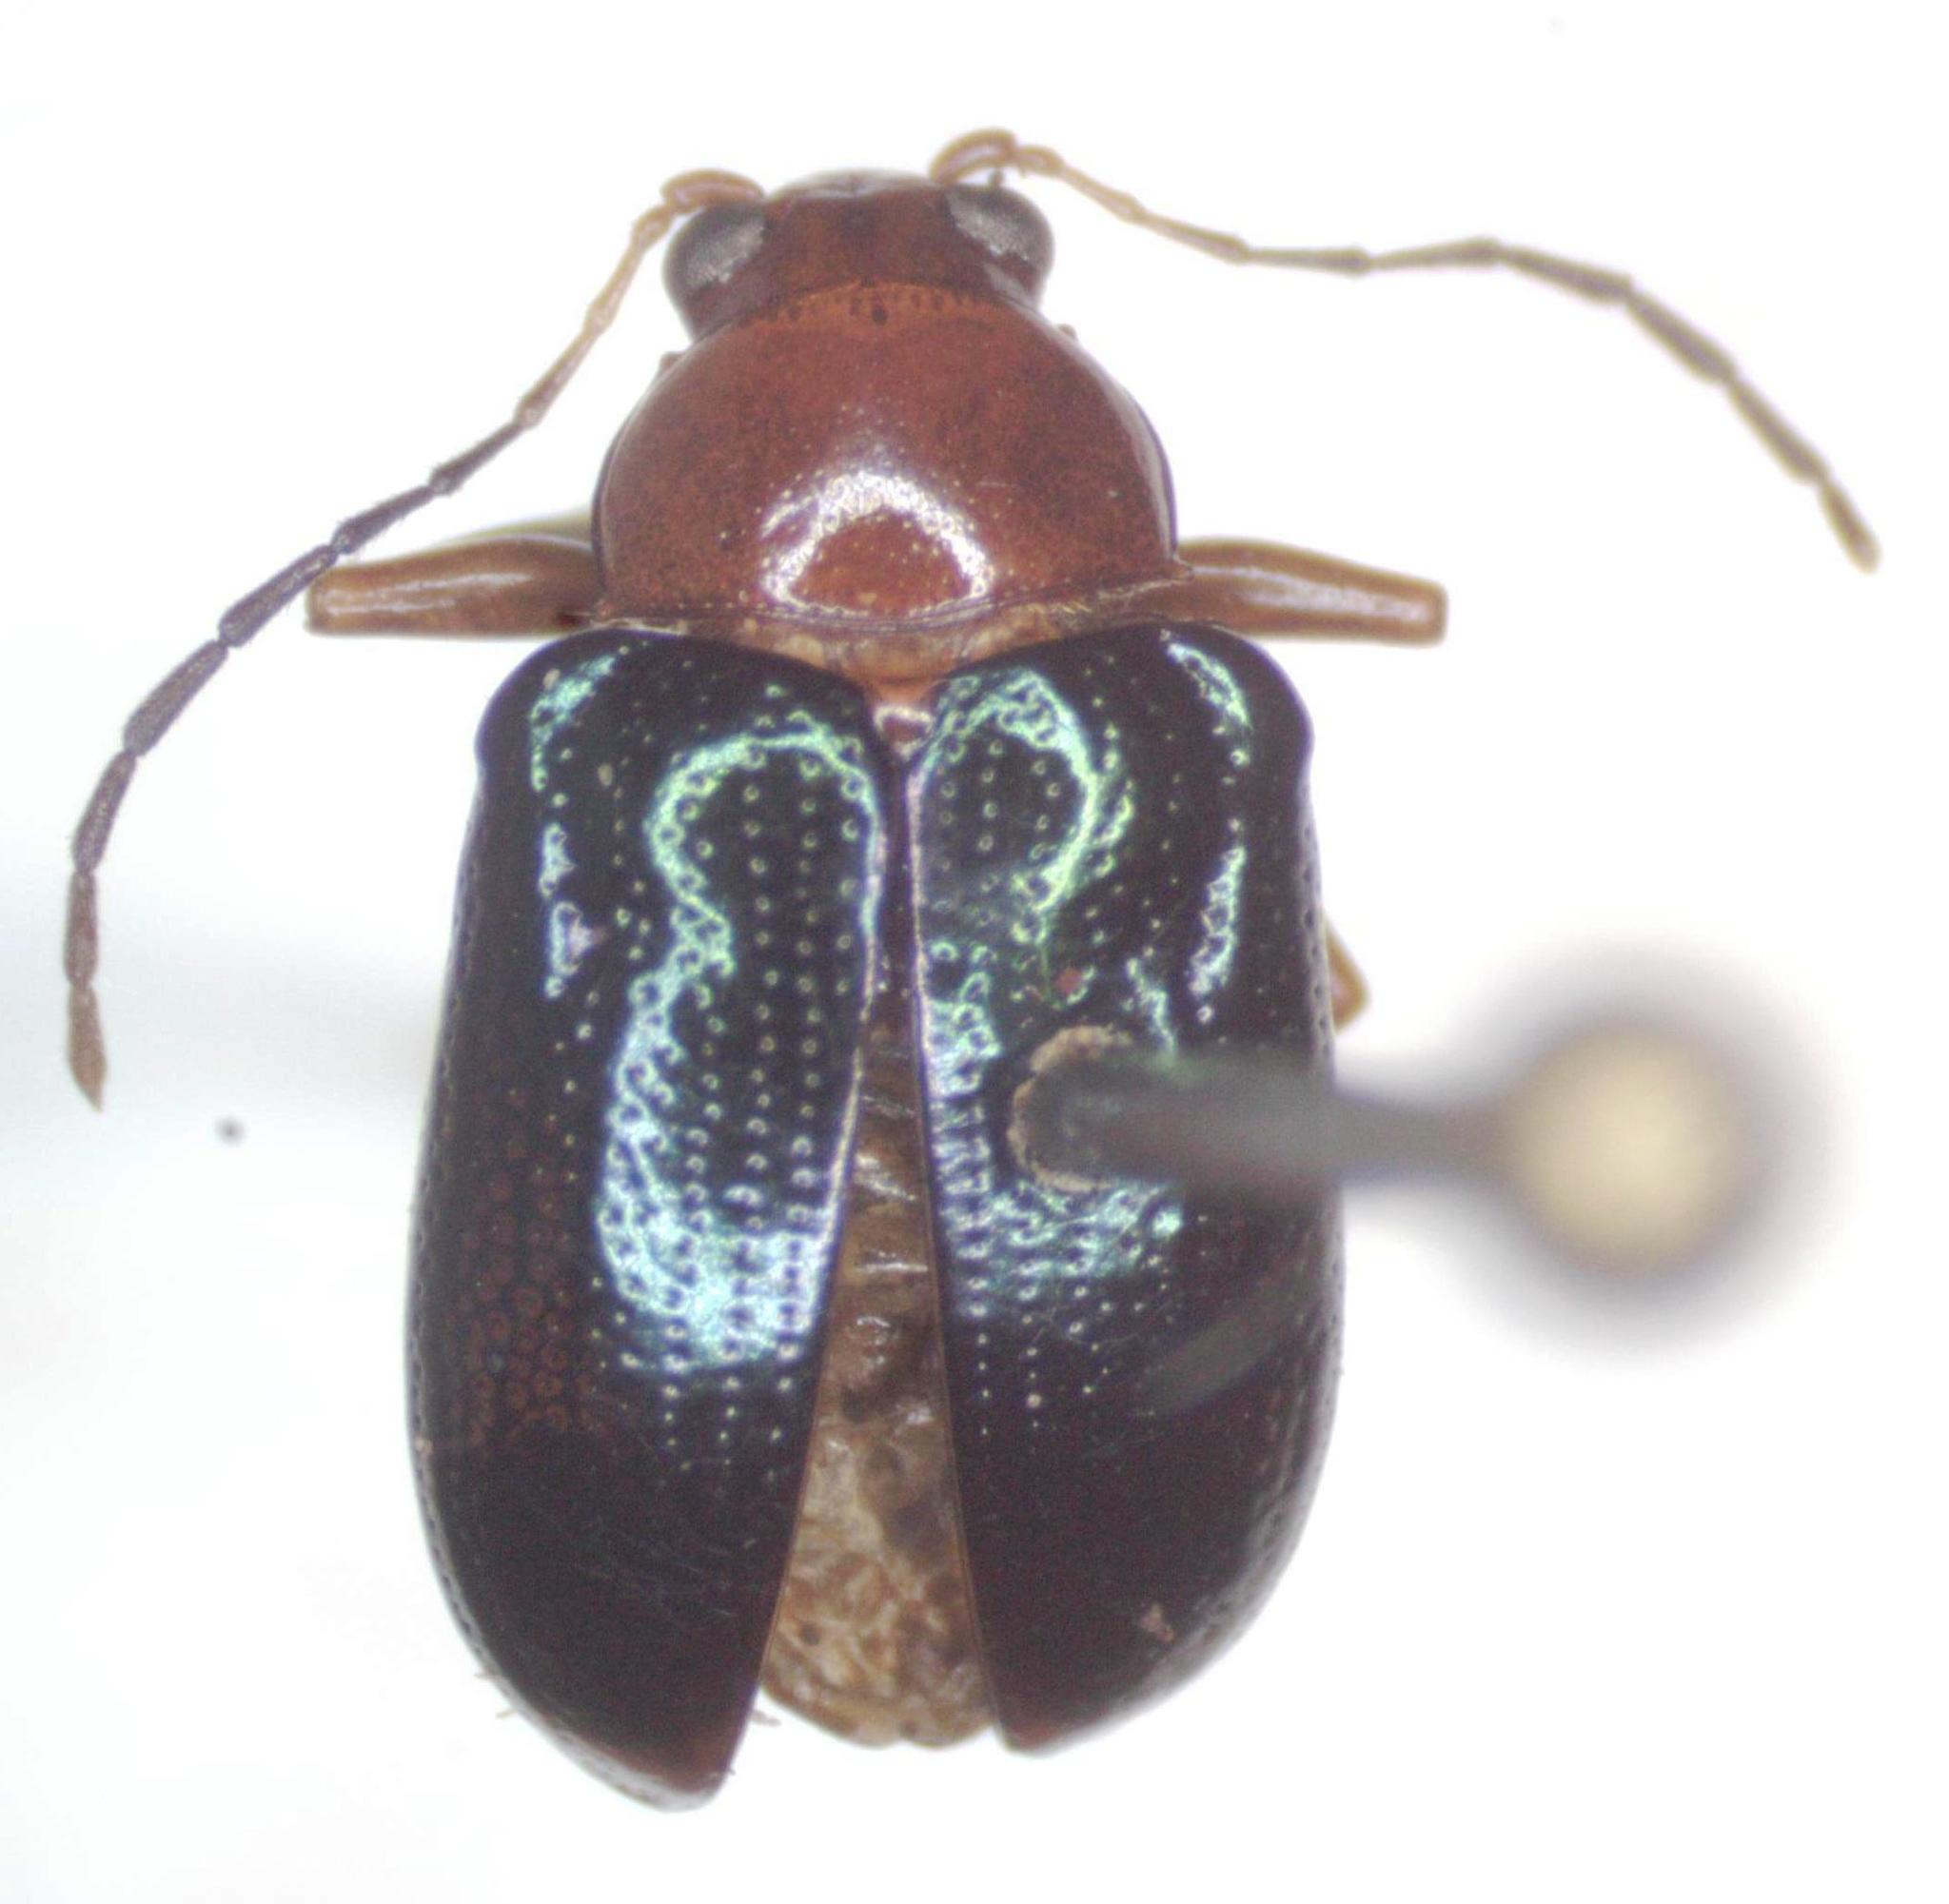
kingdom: Animalia
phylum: Arthropoda
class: Insecta
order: Coleoptera
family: Chrysomelidae
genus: Chalcophana
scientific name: Chalcophana
